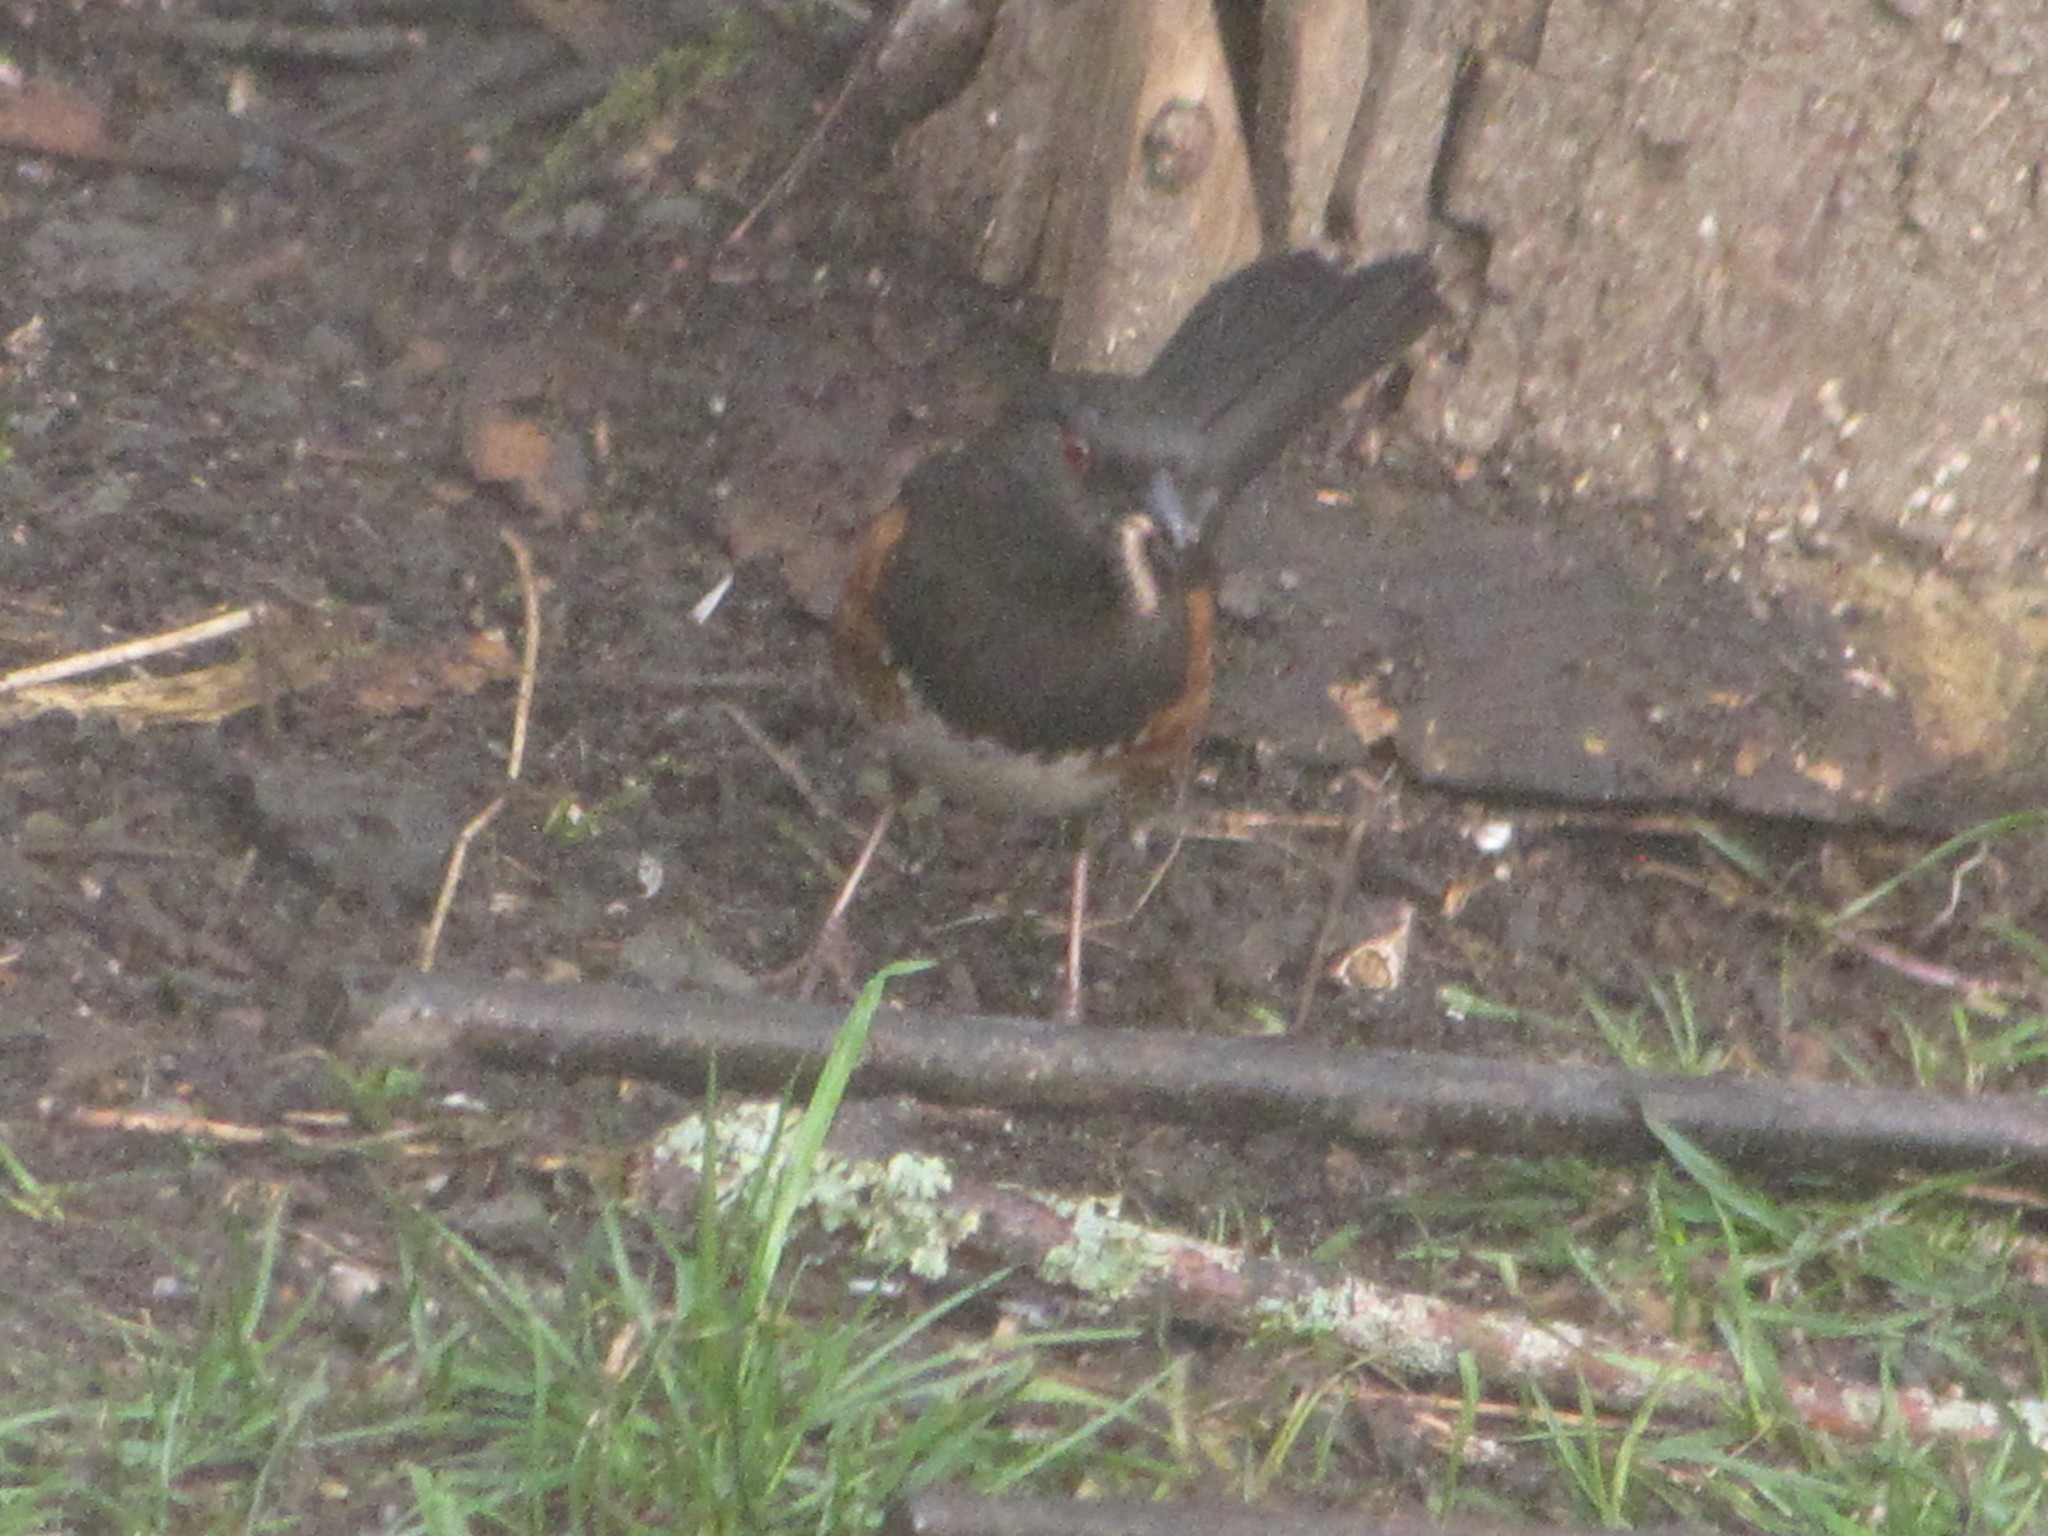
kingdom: Animalia
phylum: Chordata
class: Aves
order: Passeriformes
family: Passerellidae
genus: Pipilo
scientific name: Pipilo maculatus
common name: Spotted towhee
